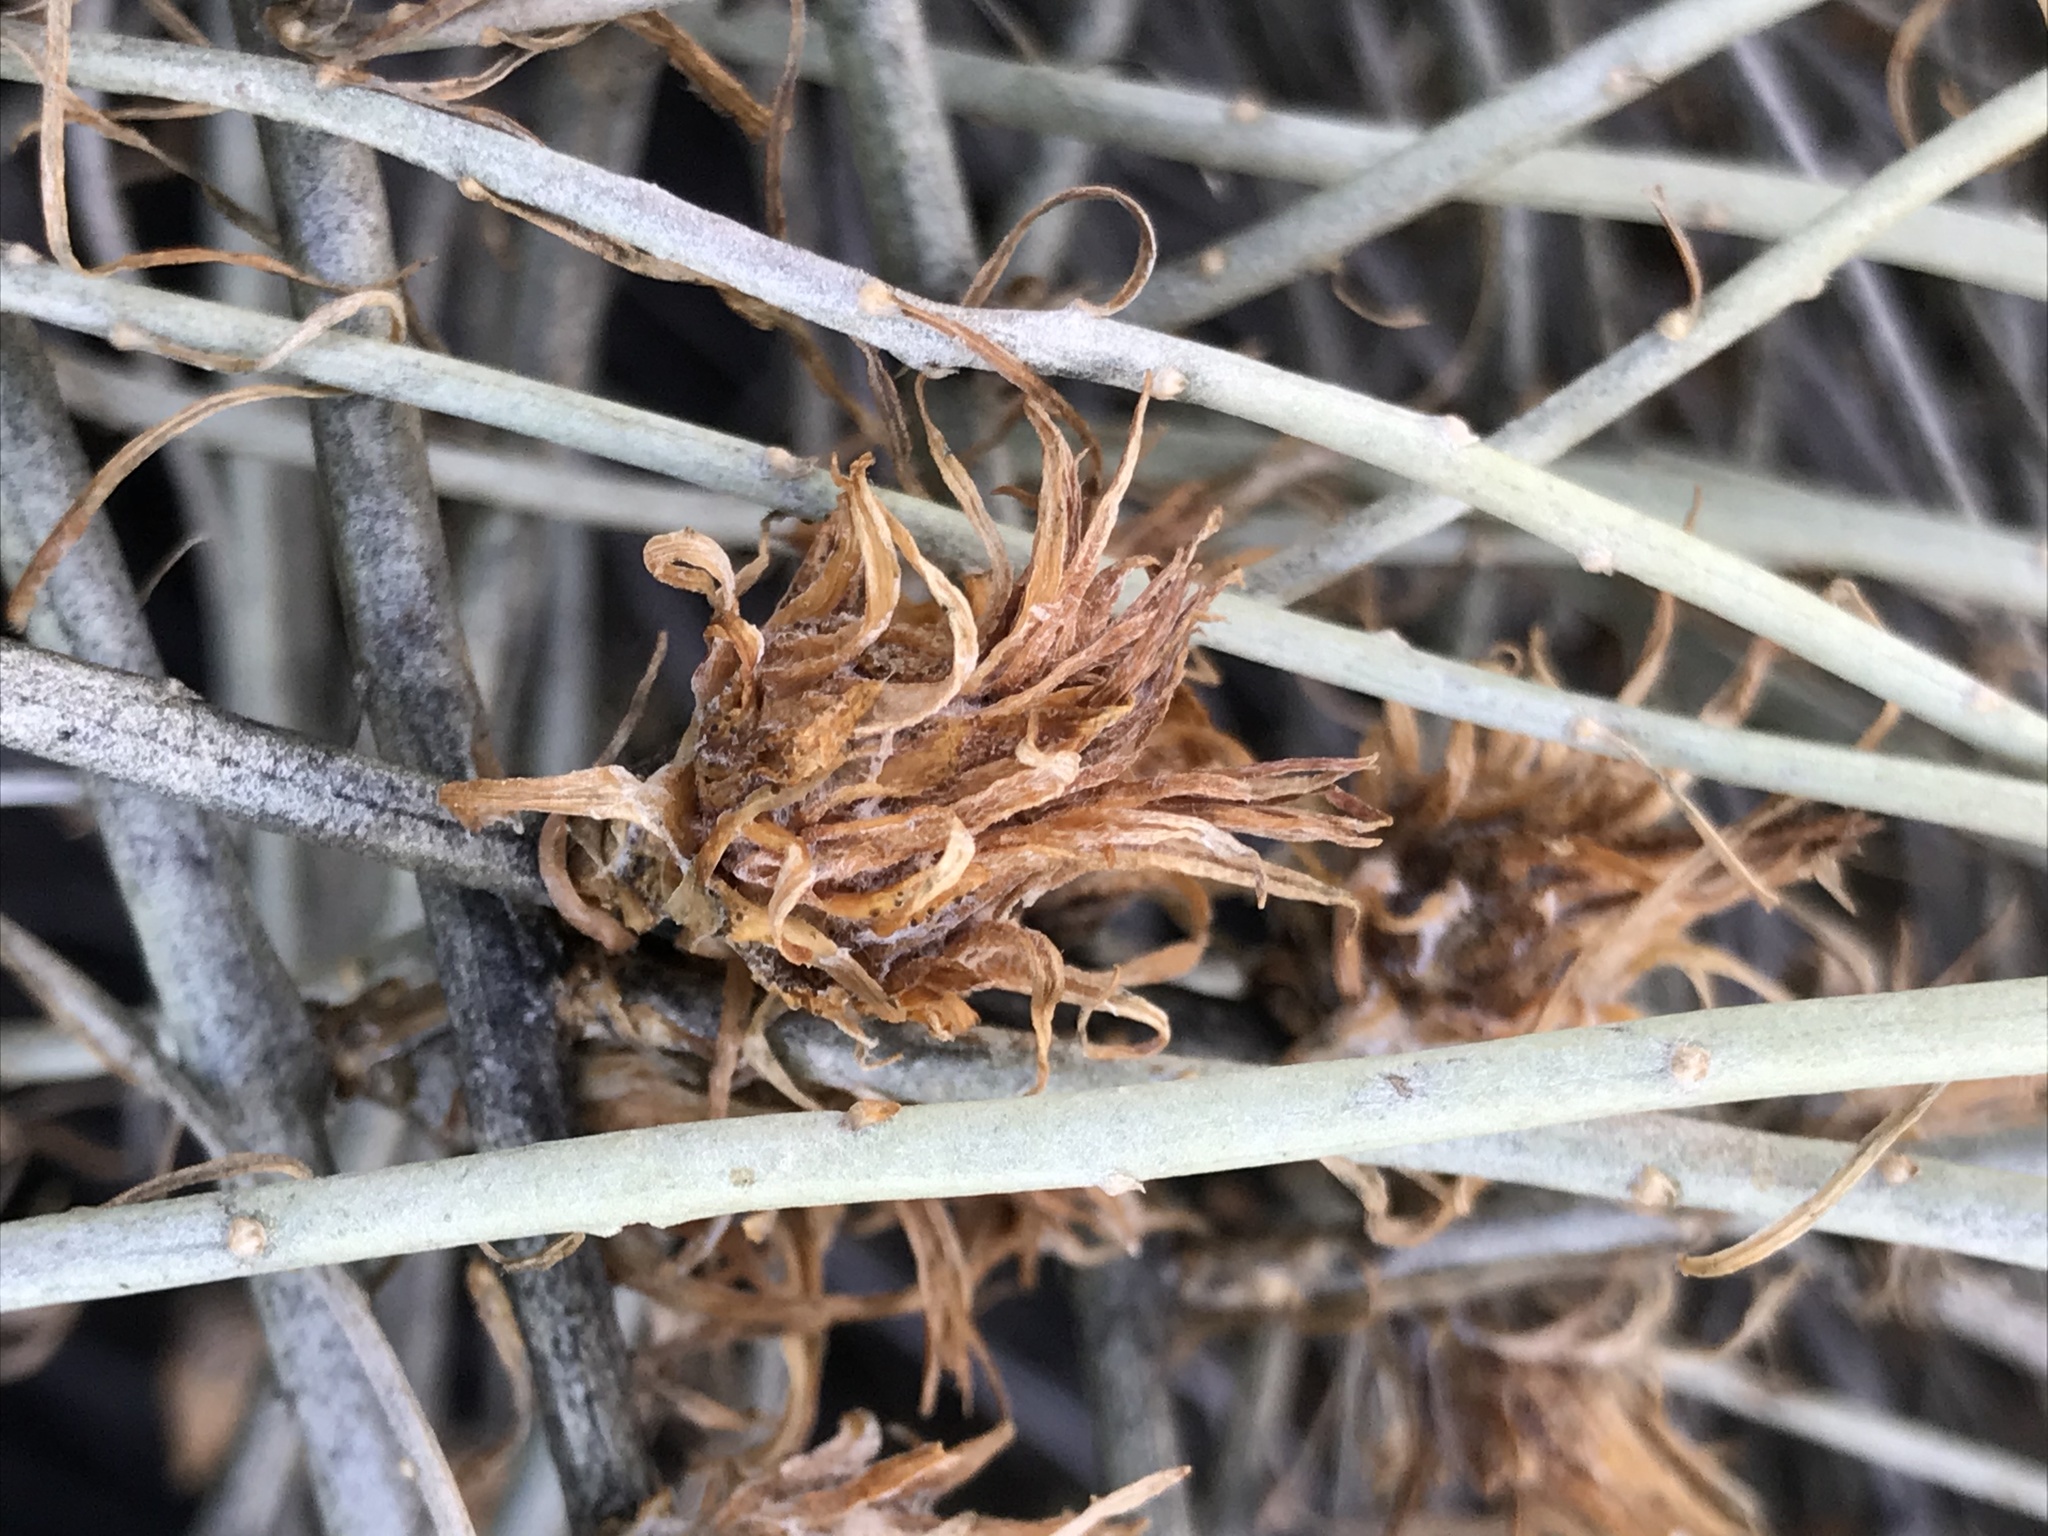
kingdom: Animalia
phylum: Arthropoda
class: Insecta
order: Diptera
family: Cecidomyiidae
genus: Rhopalomyia
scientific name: Rhopalomyia ericameriae
